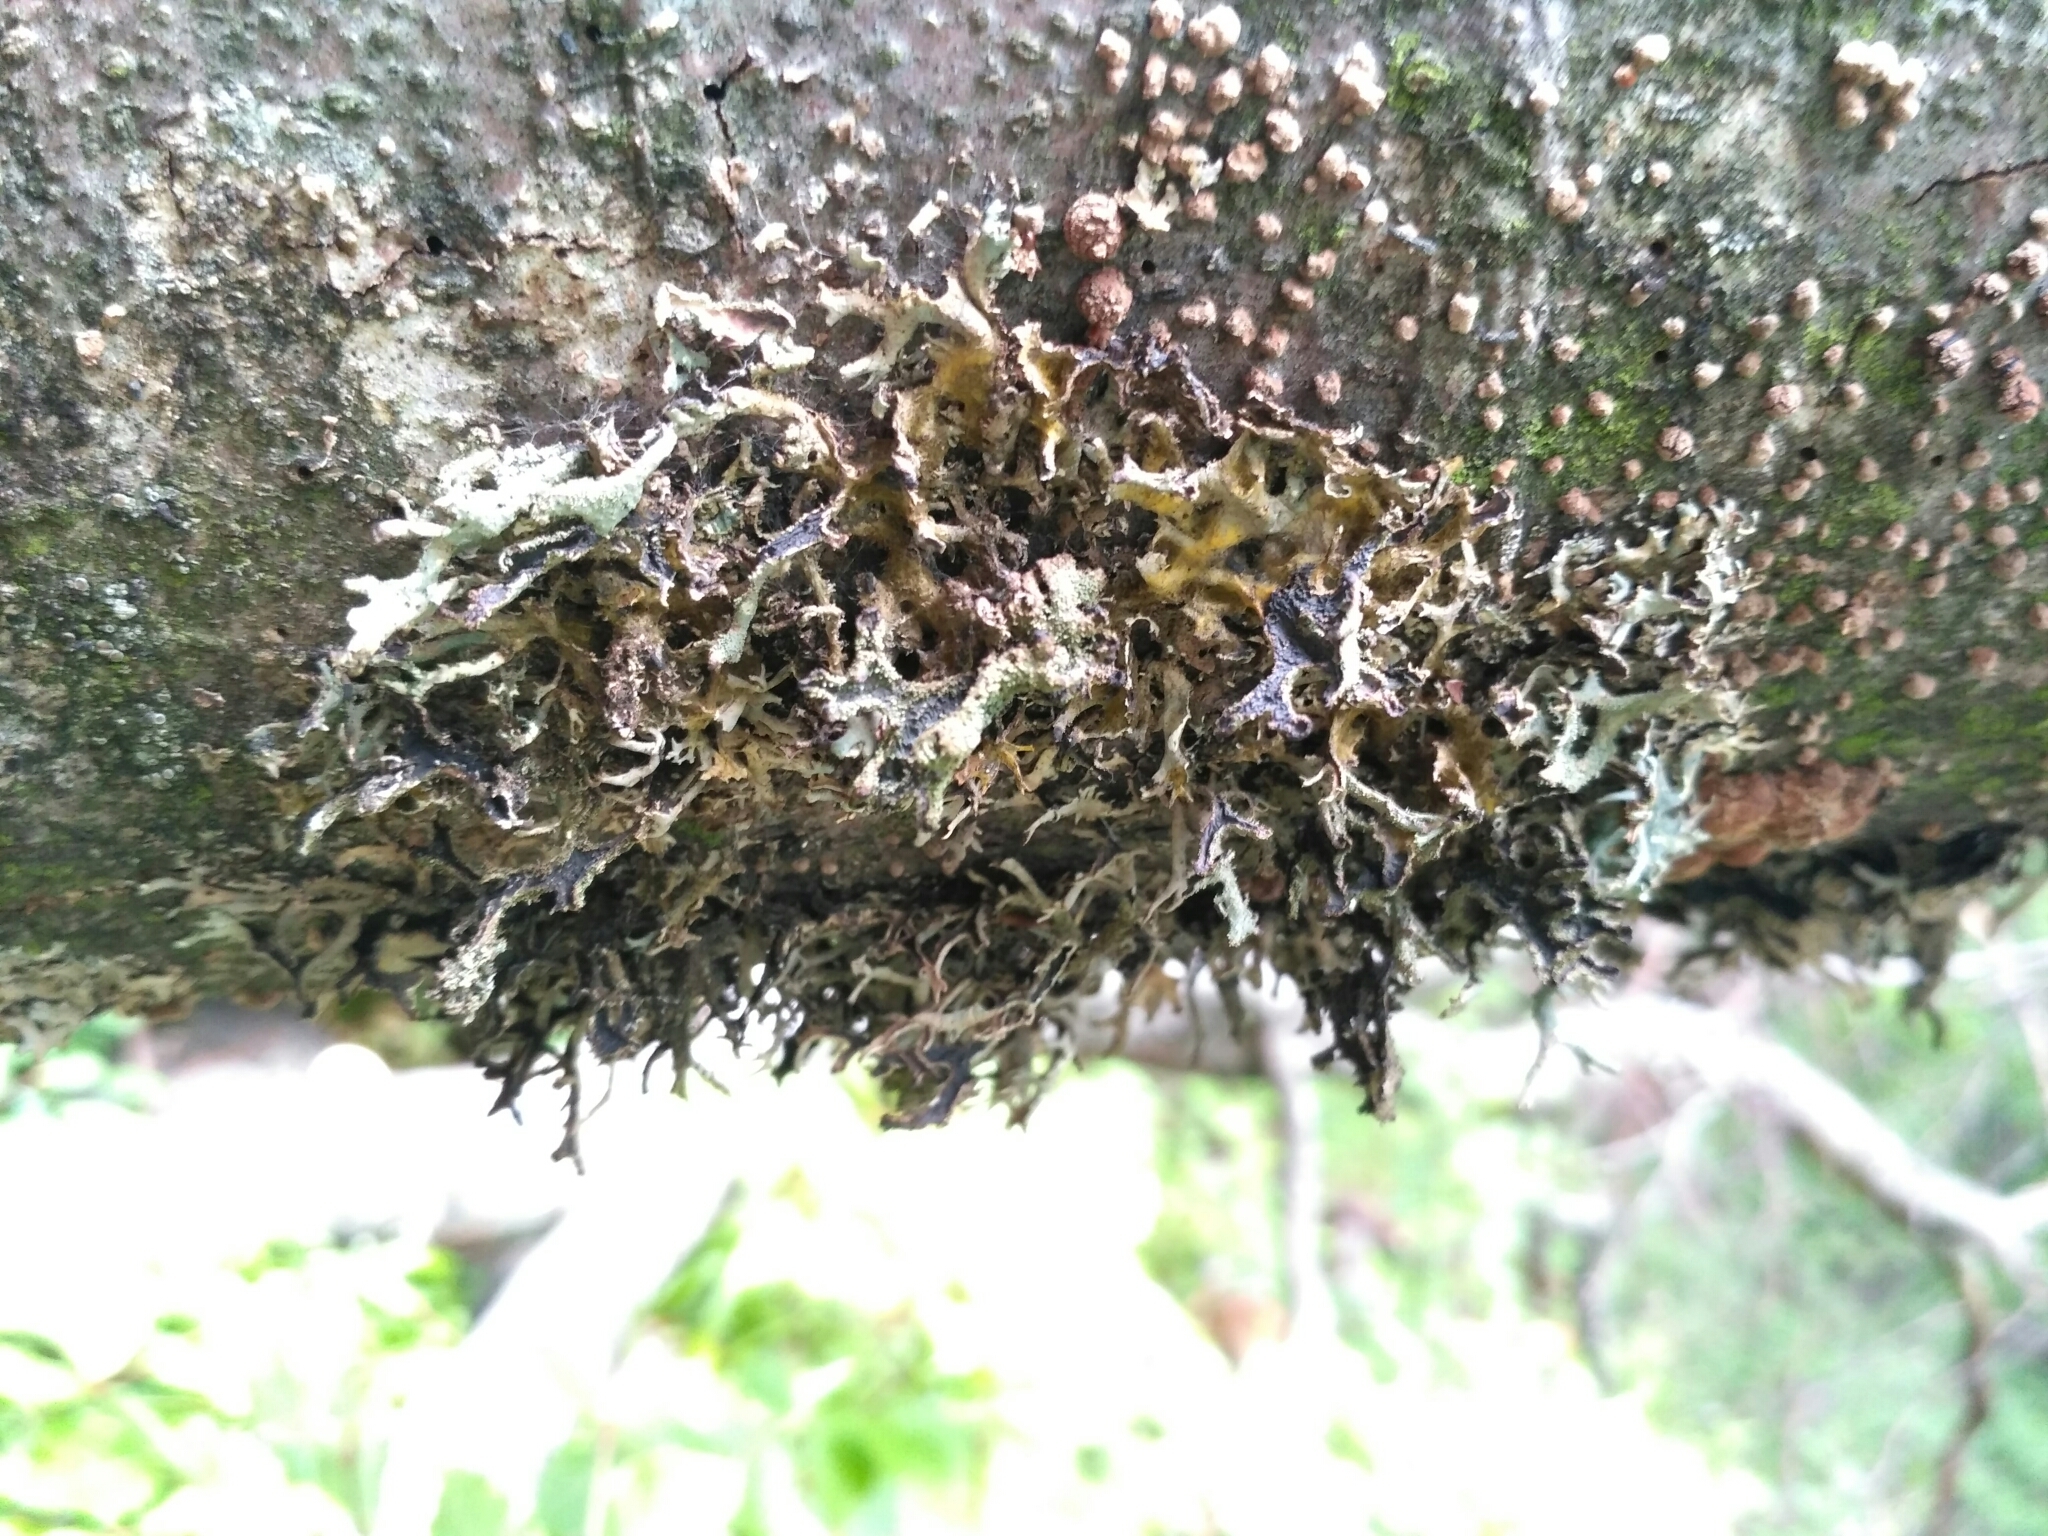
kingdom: Fungi
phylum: Ascomycota
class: Lecanoromycetes
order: Lecanorales
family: Parmeliaceae
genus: Pseudevernia
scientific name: Pseudevernia furfuracea
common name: Tree moss
